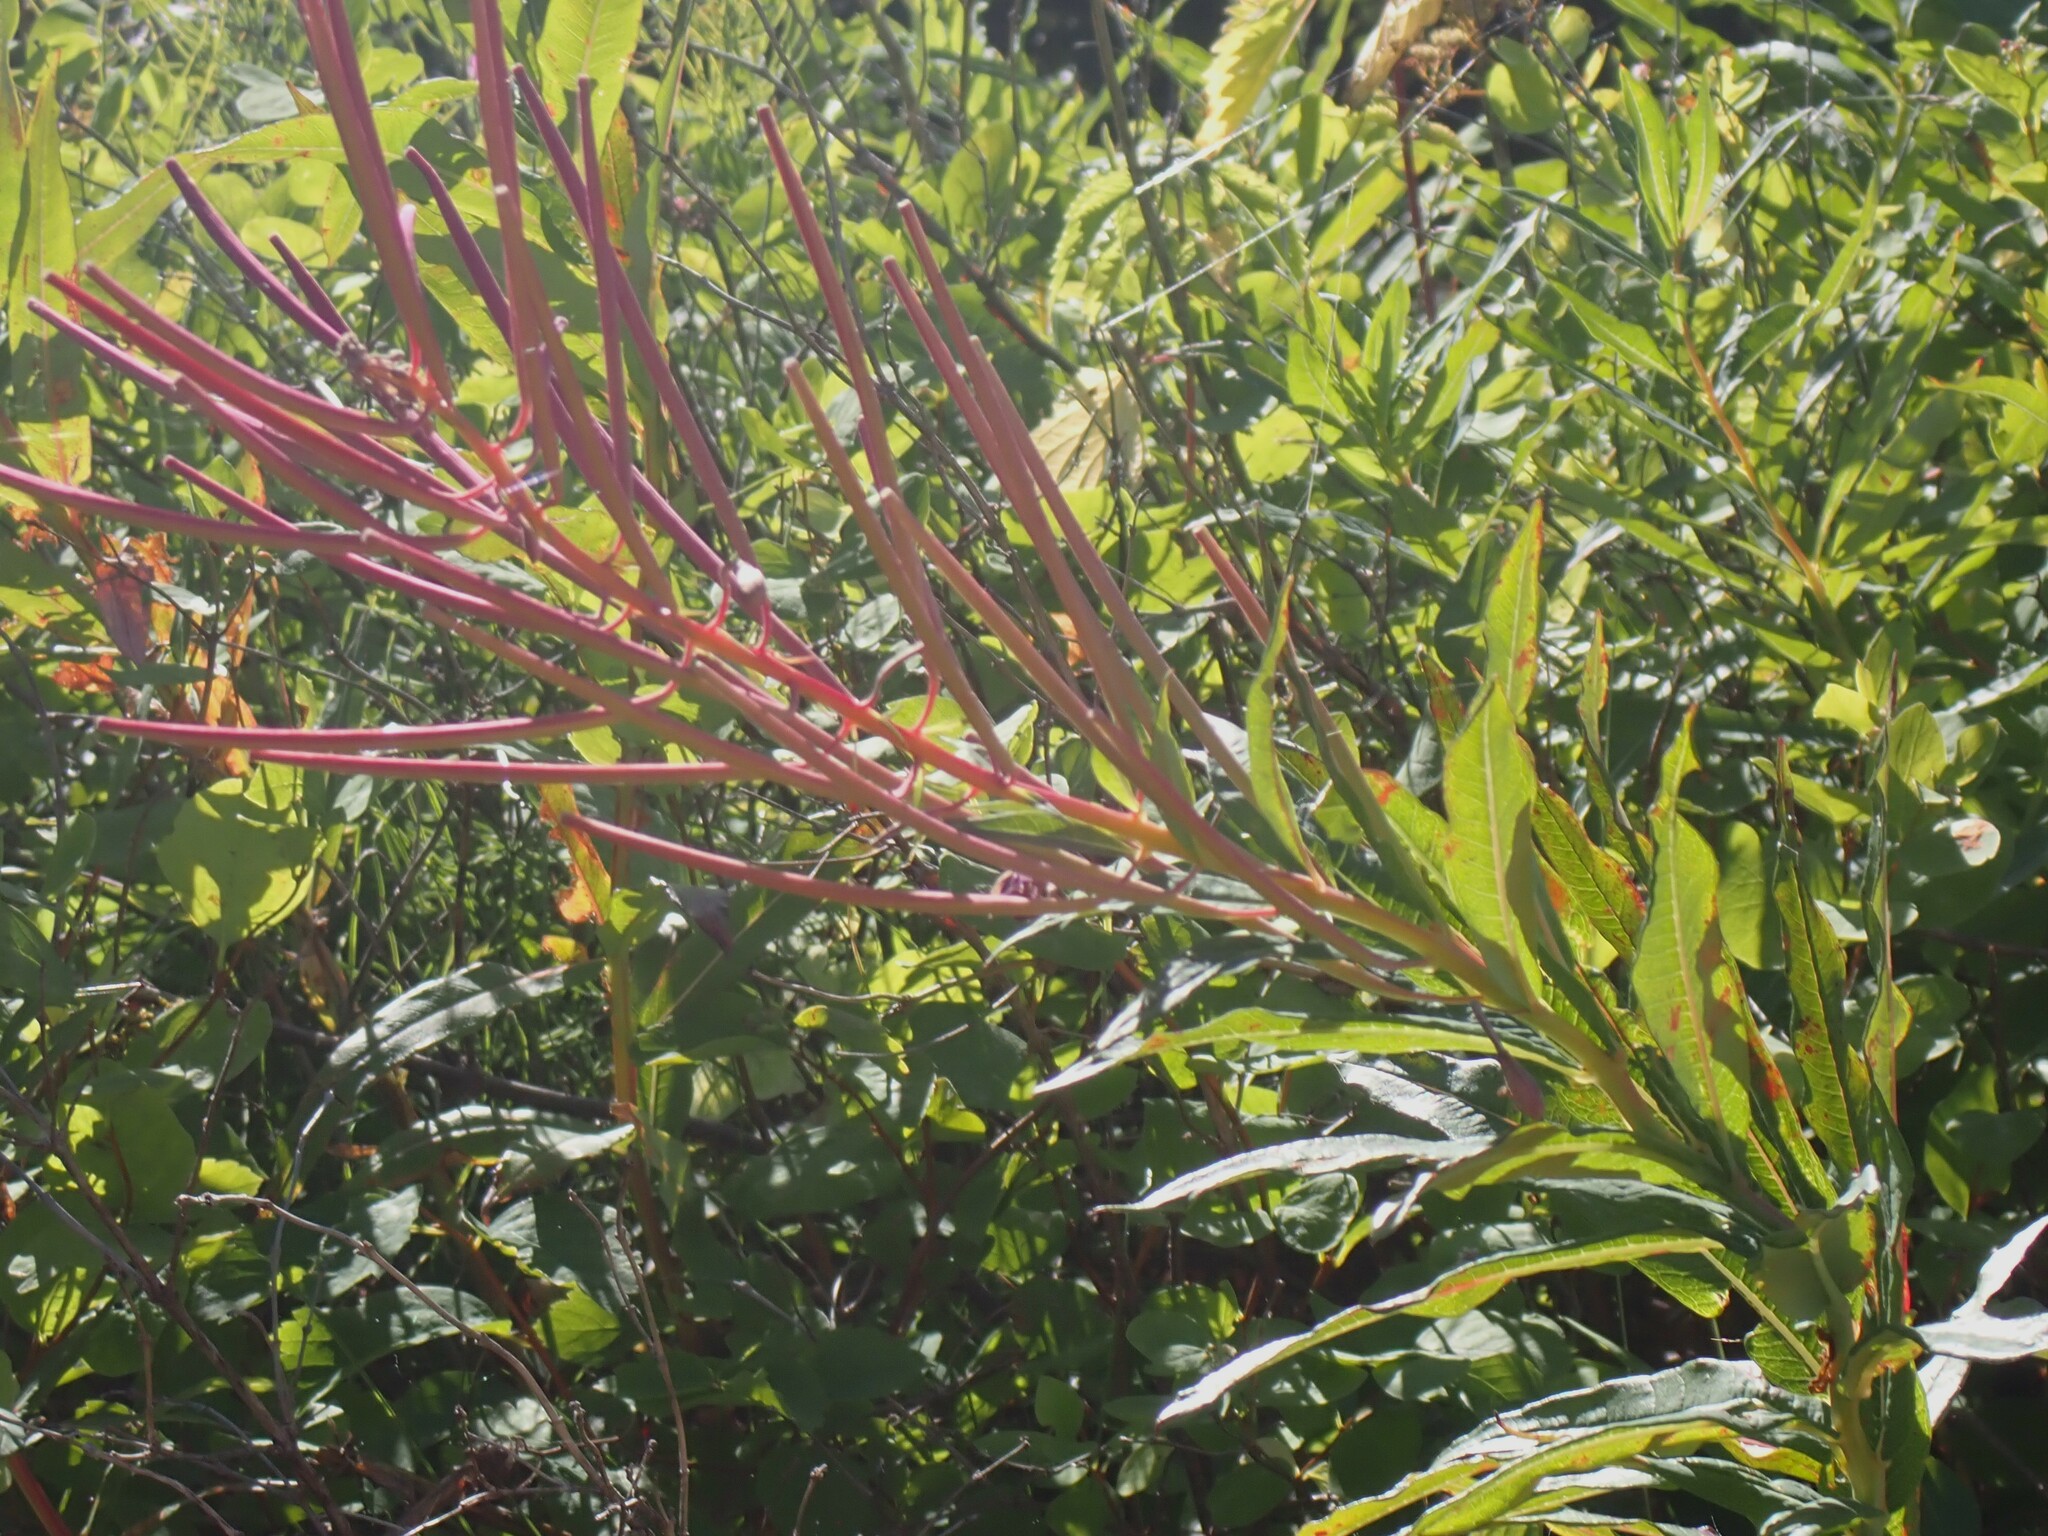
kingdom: Plantae
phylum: Tracheophyta
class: Magnoliopsida
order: Myrtales
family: Onagraceae
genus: Chamaenerion
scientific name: Chamaenerion angustifolium
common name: Fireweed
